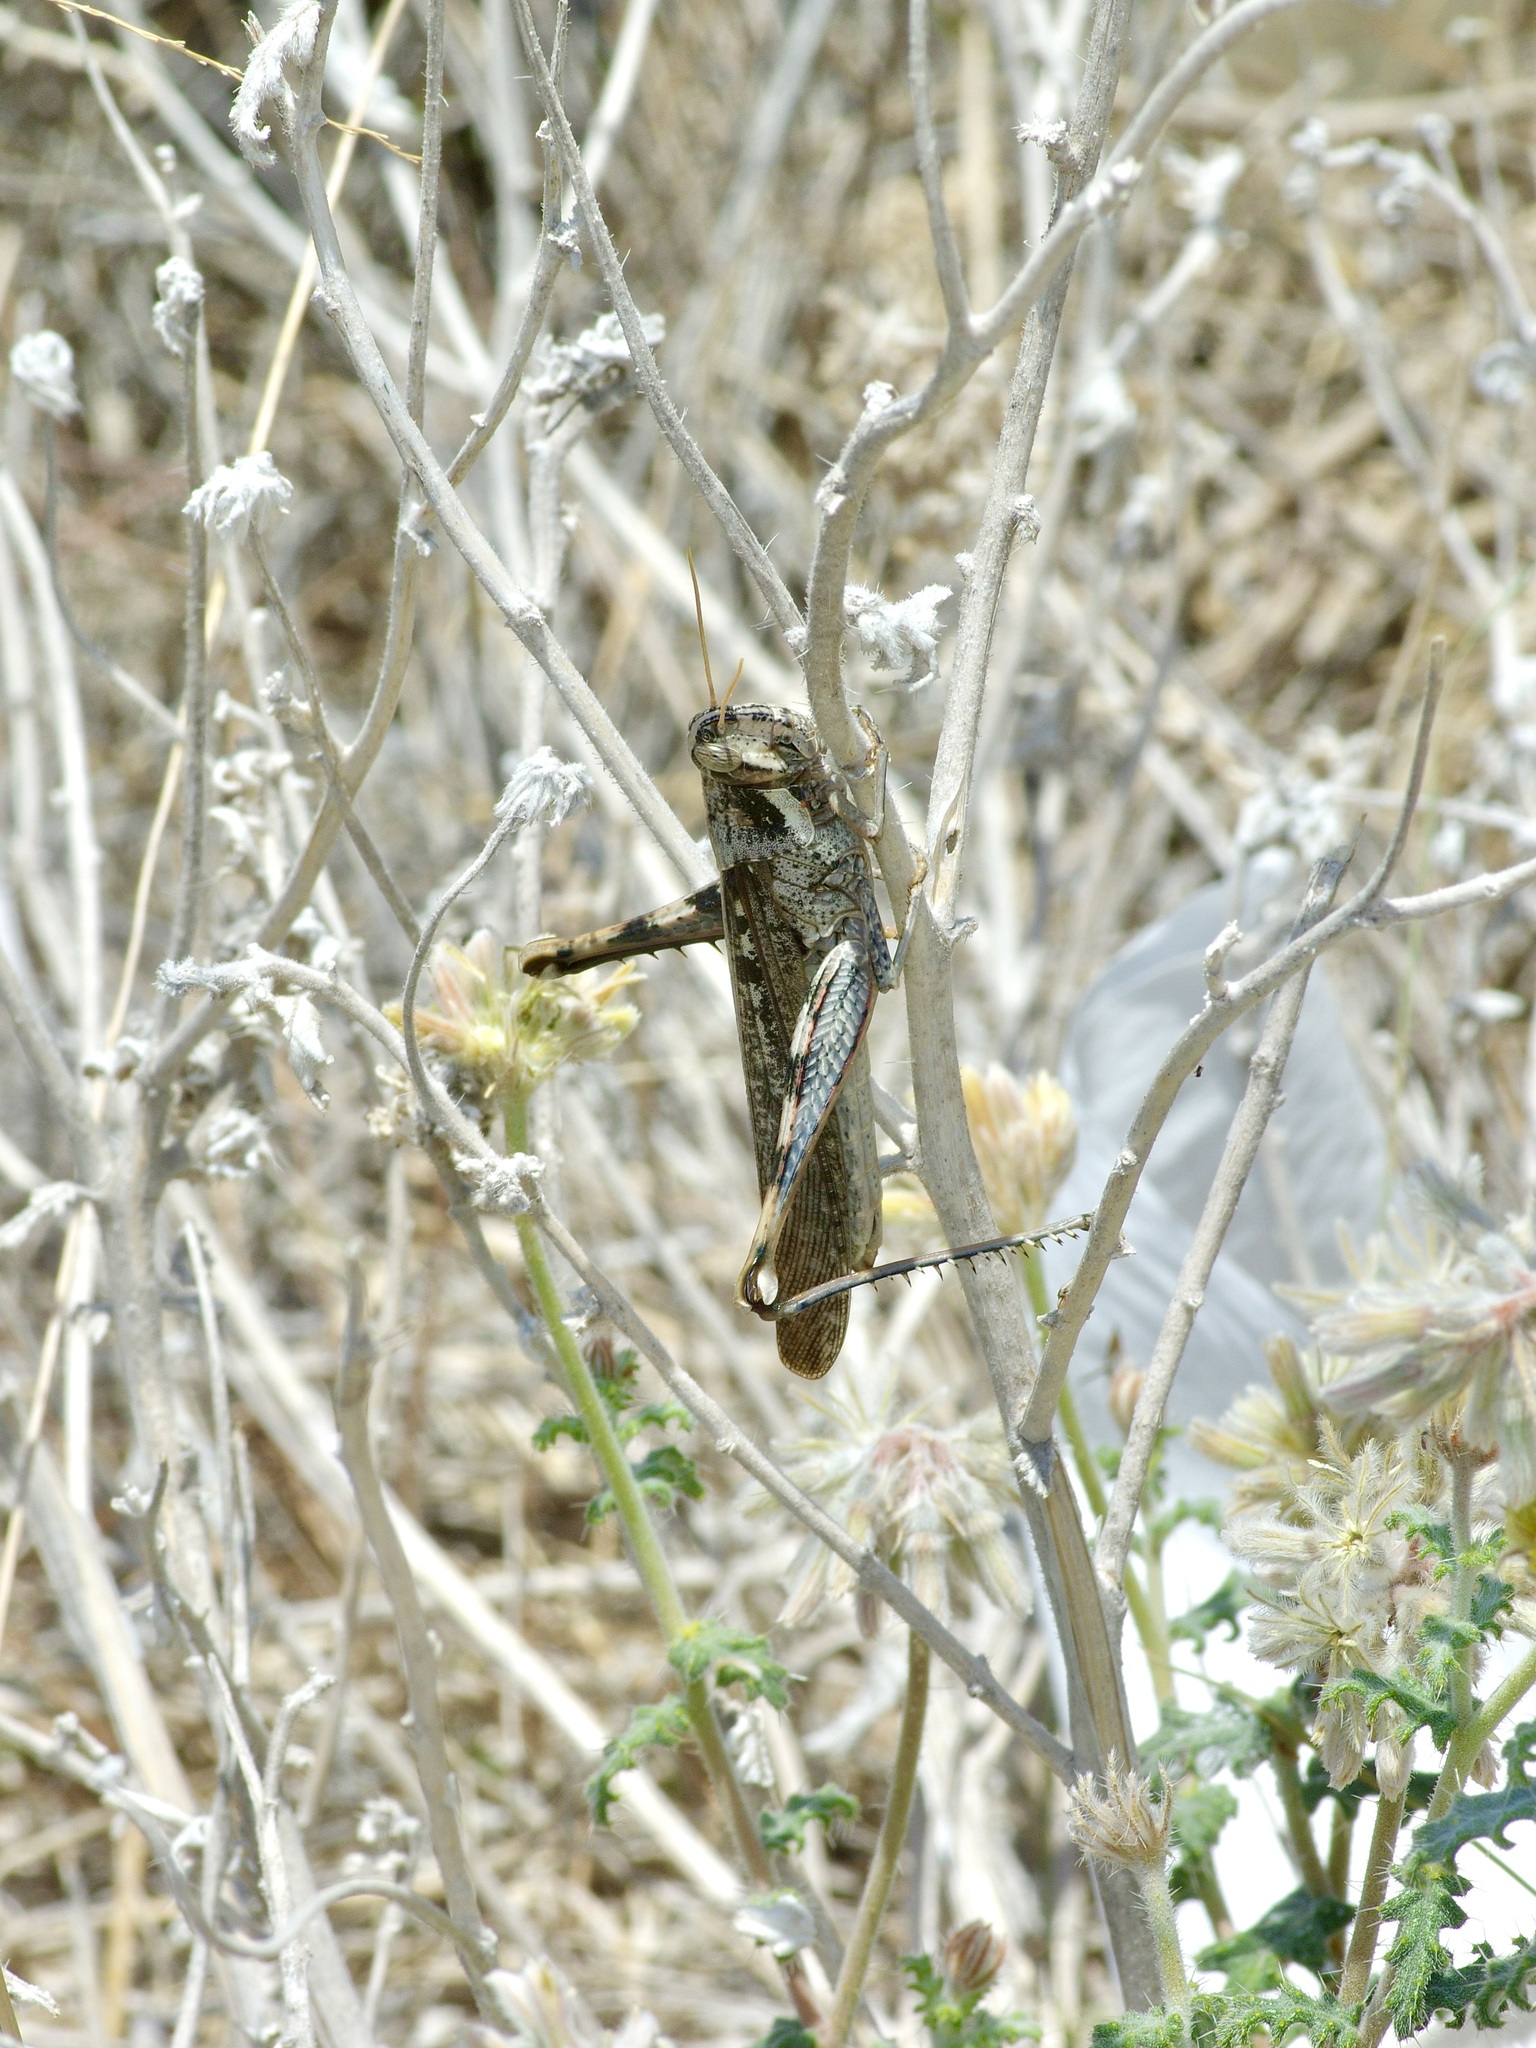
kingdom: Animalia
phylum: Arthropoda
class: Insecta
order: Orthoptera
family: Acrididae
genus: Schistocerca
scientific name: Schistocerca nitens
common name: Vagrant grasshopper
